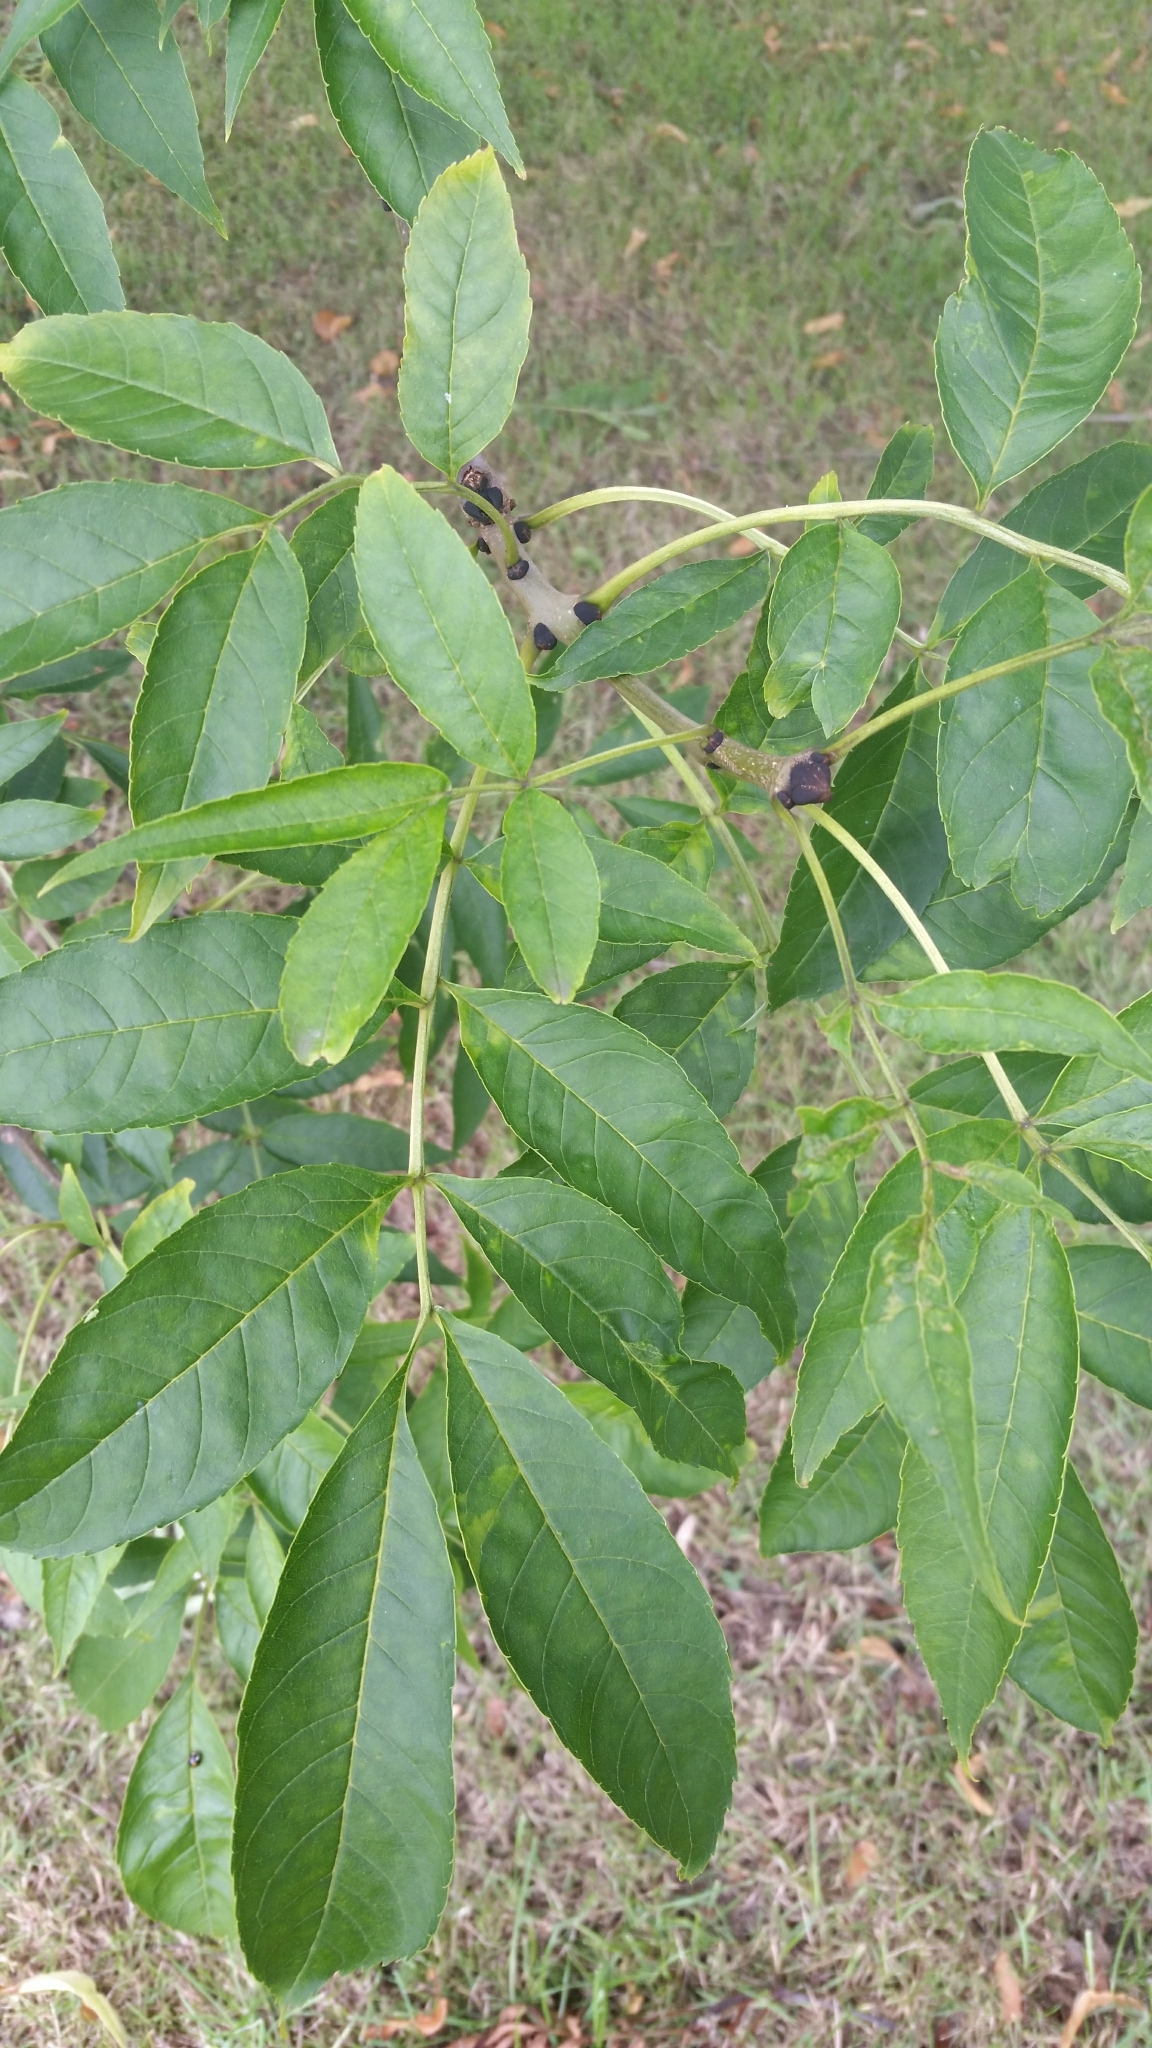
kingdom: Plantae
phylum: Tracheophyta
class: Magnoliopsida
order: Lamiales
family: Oleaceae
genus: Fraxinus
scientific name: Fraxinus excelsior
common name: European ash
